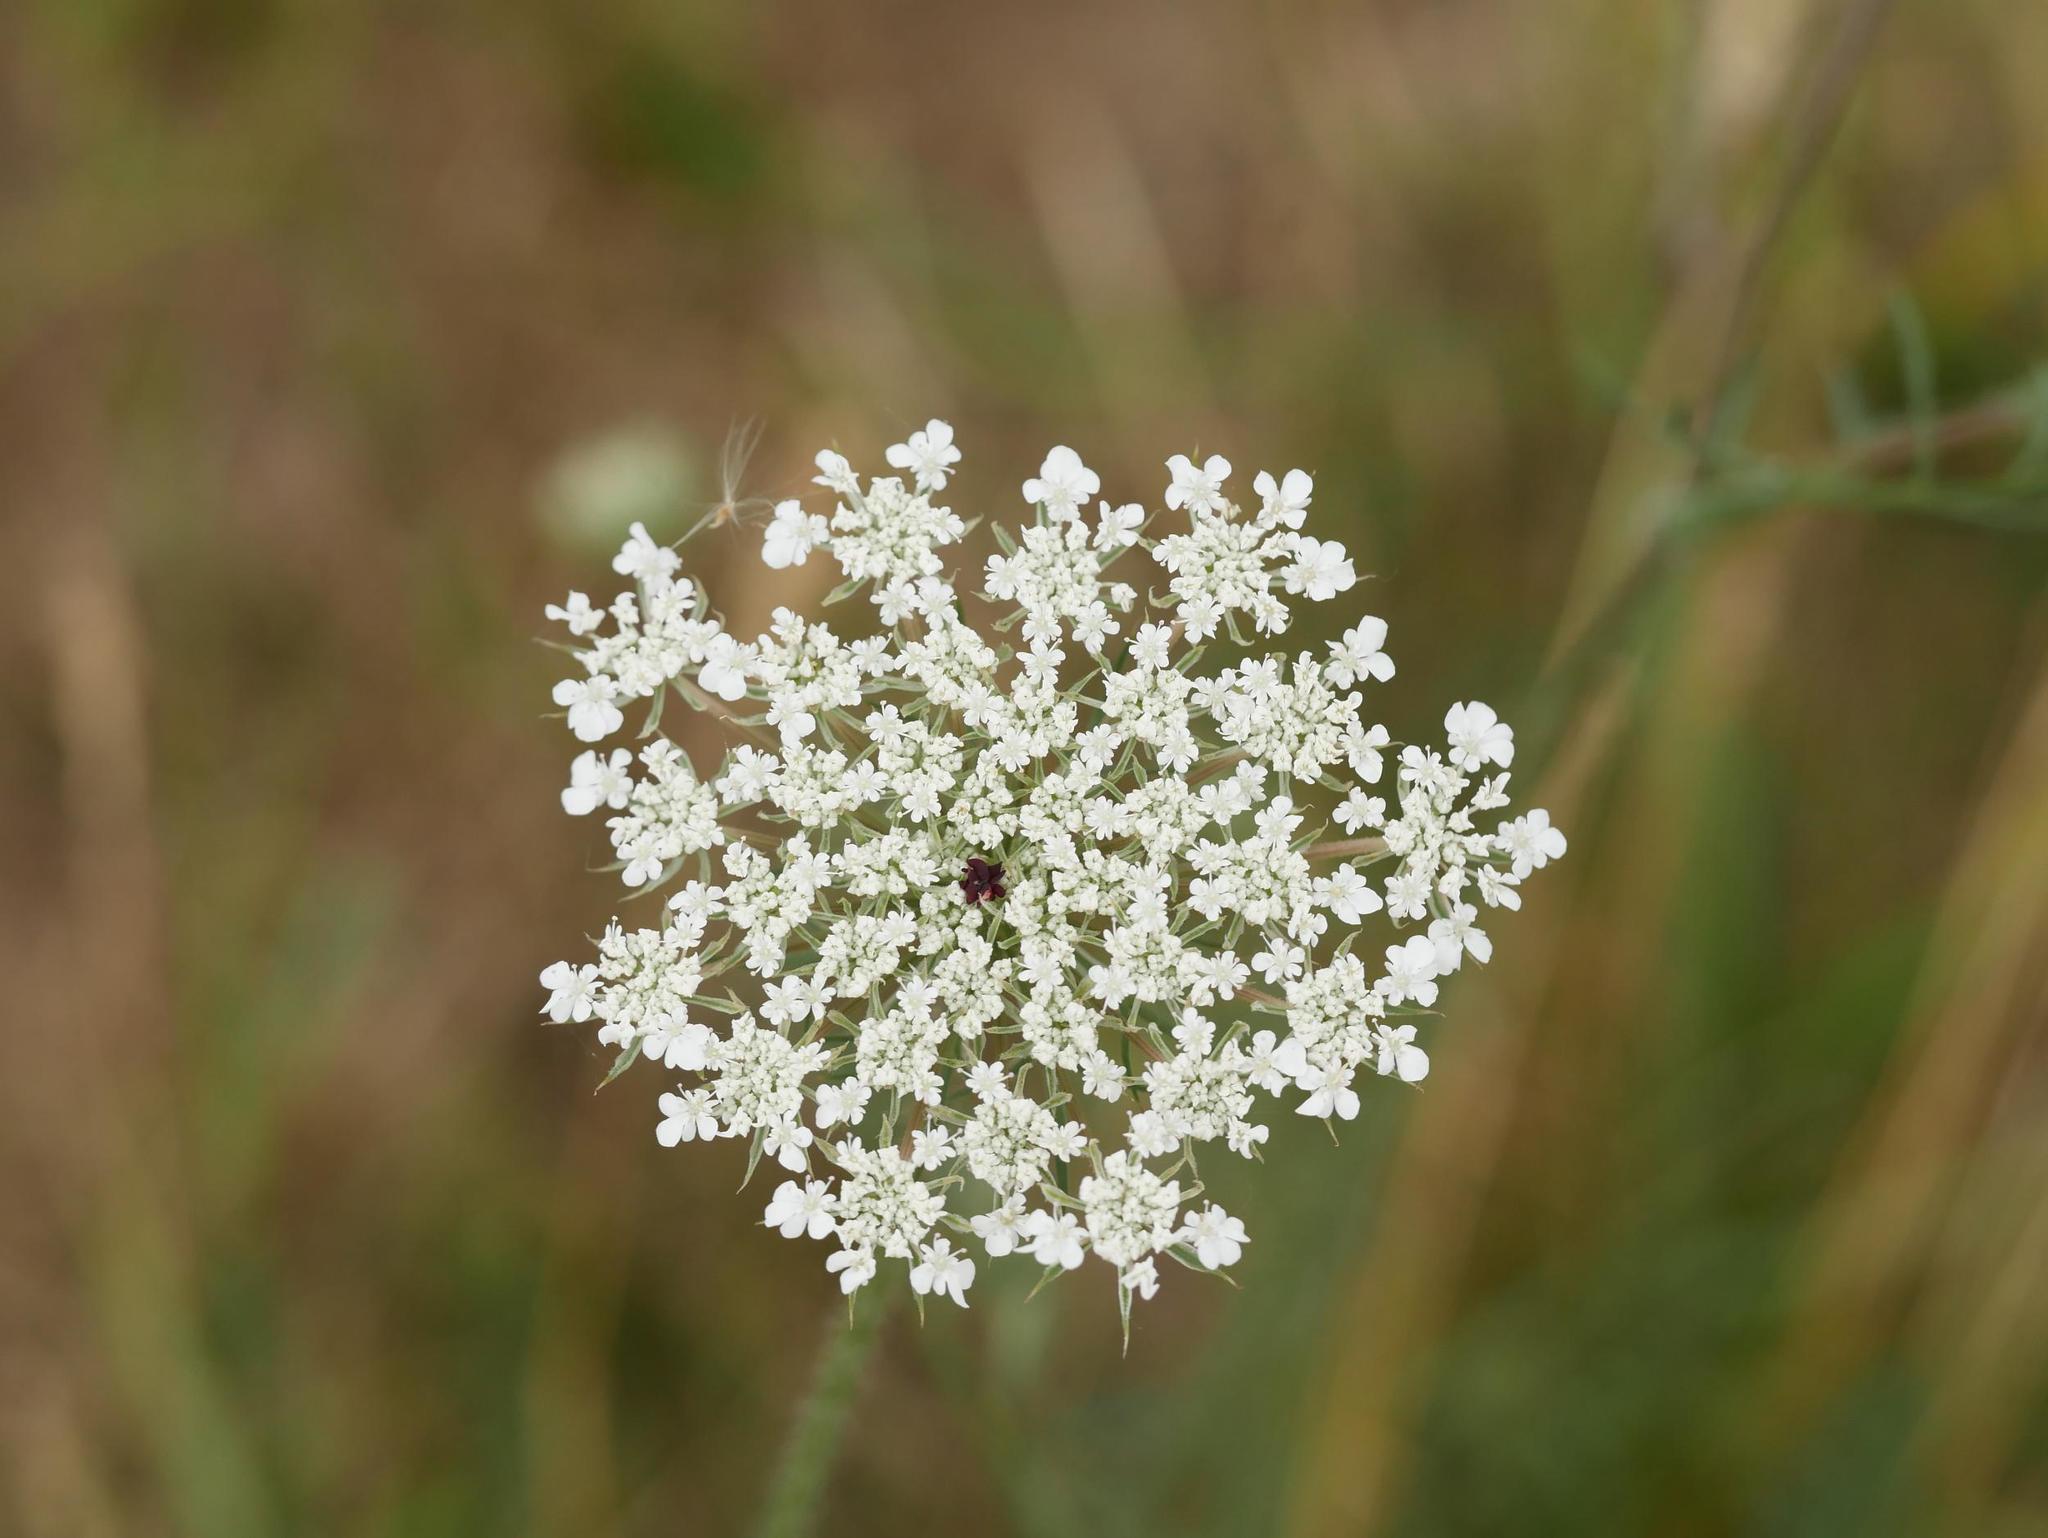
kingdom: Plantae
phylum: Tracheophyta
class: Magnoliopsida
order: Apiales
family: Apiaceae
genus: Daucus
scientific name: Daucus carota
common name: Wild carrot
